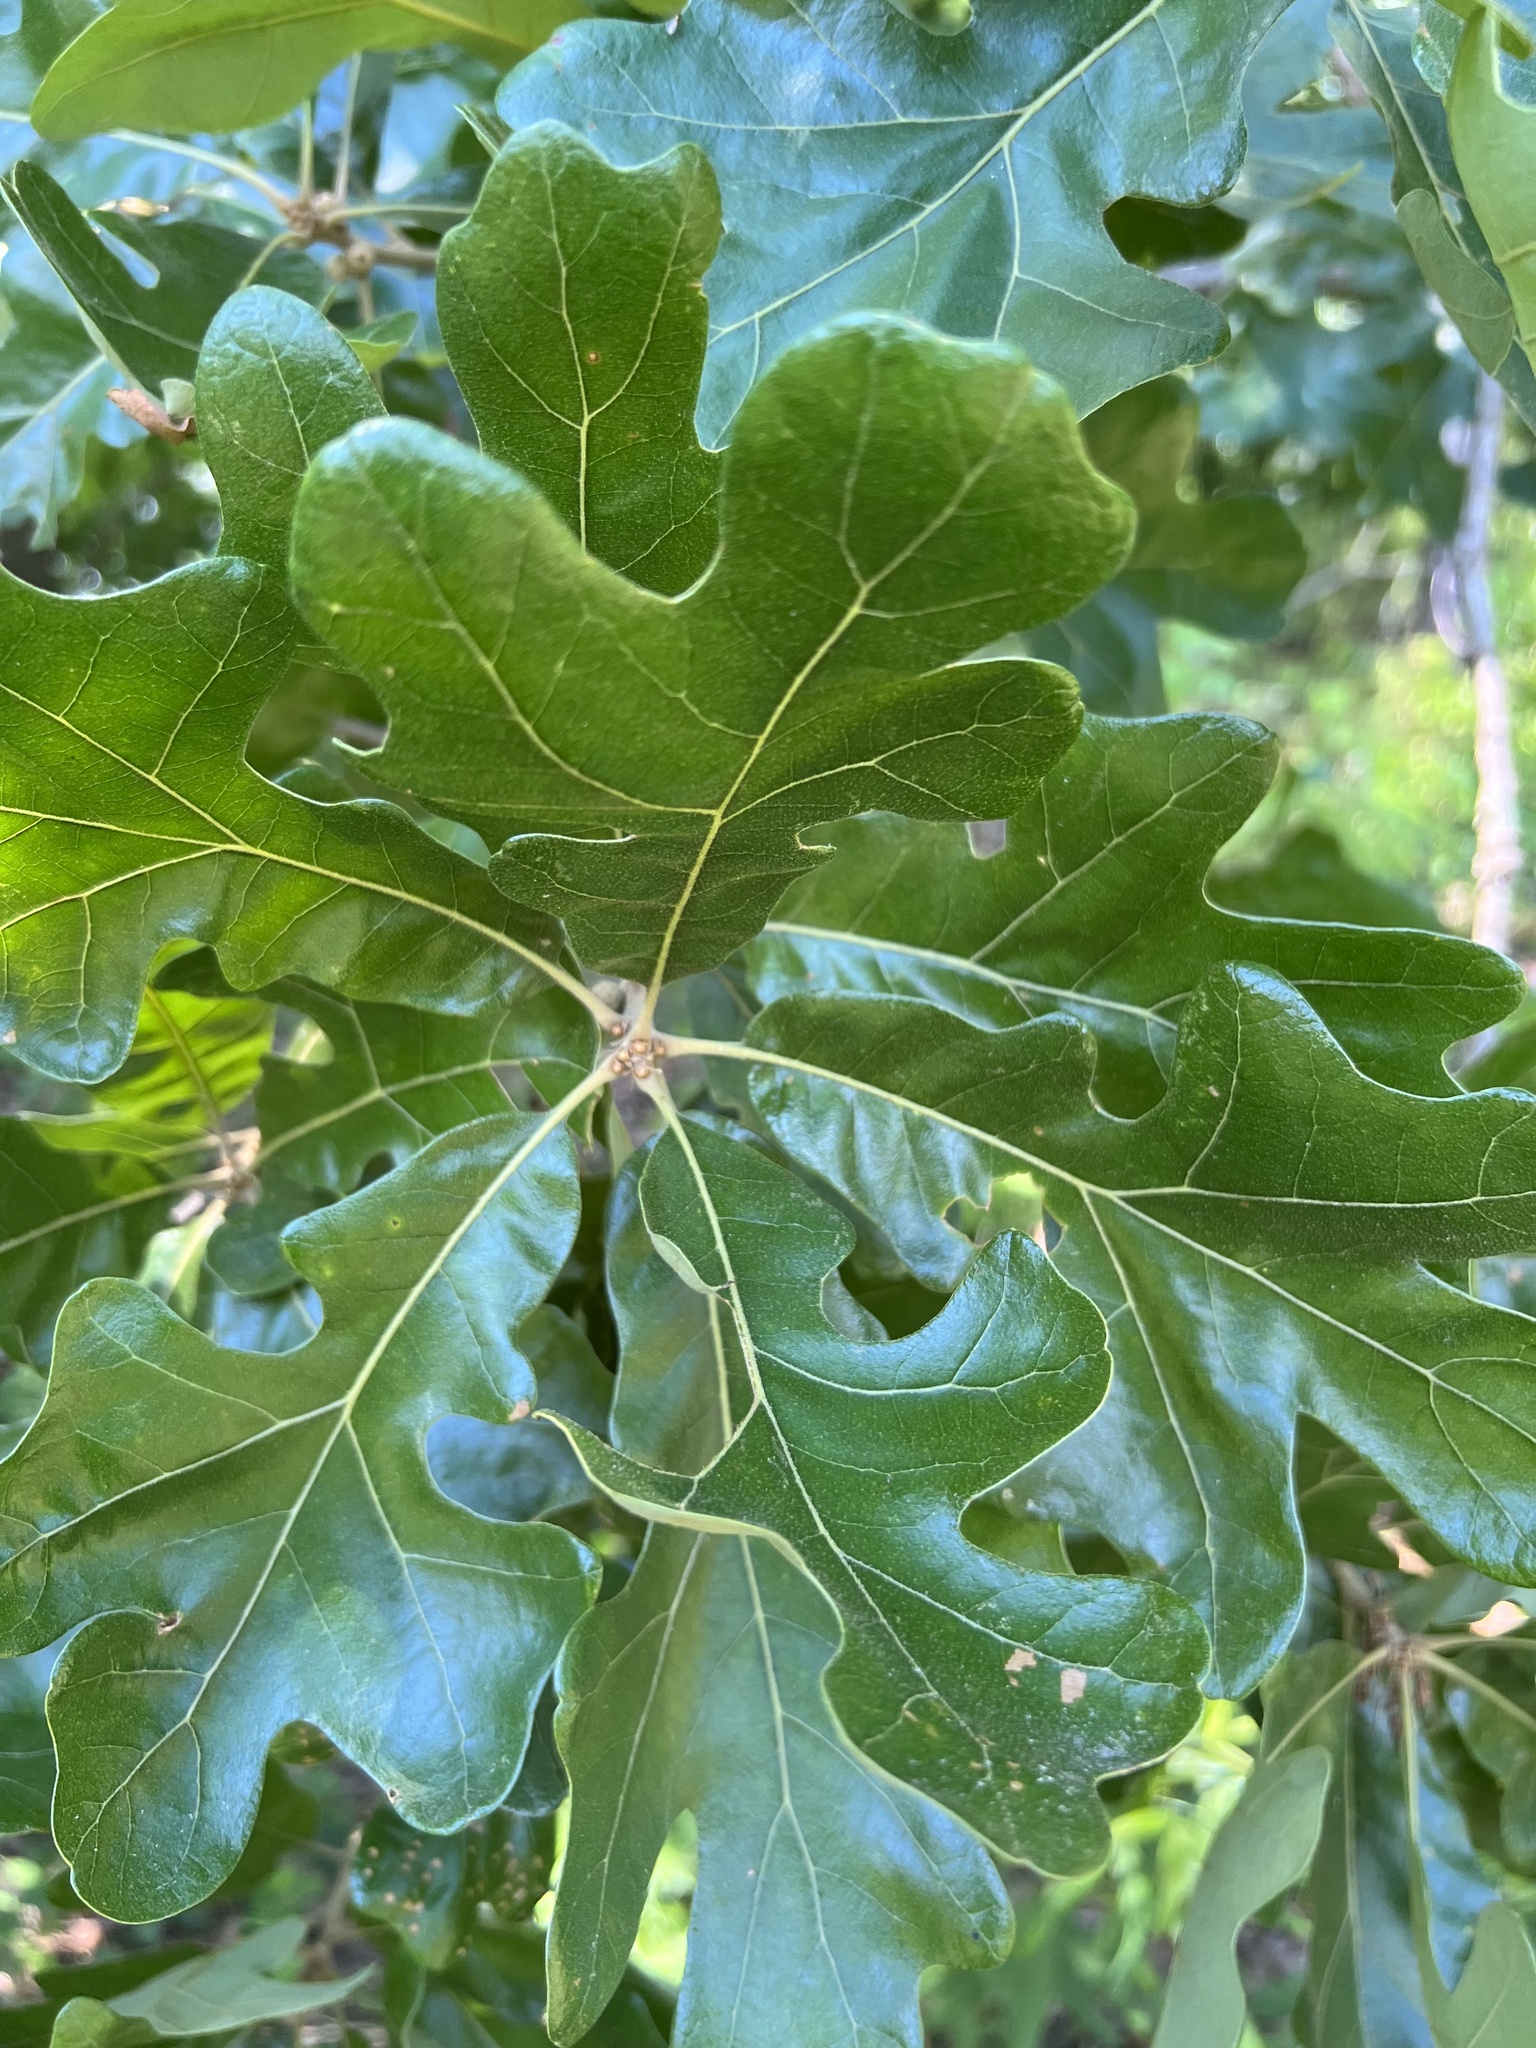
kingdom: Plantae
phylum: Tracheophyta
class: Magnoliopsida
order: Fagales
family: Fagaceae
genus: Quercus
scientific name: Quercus stellata
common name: Post oak
